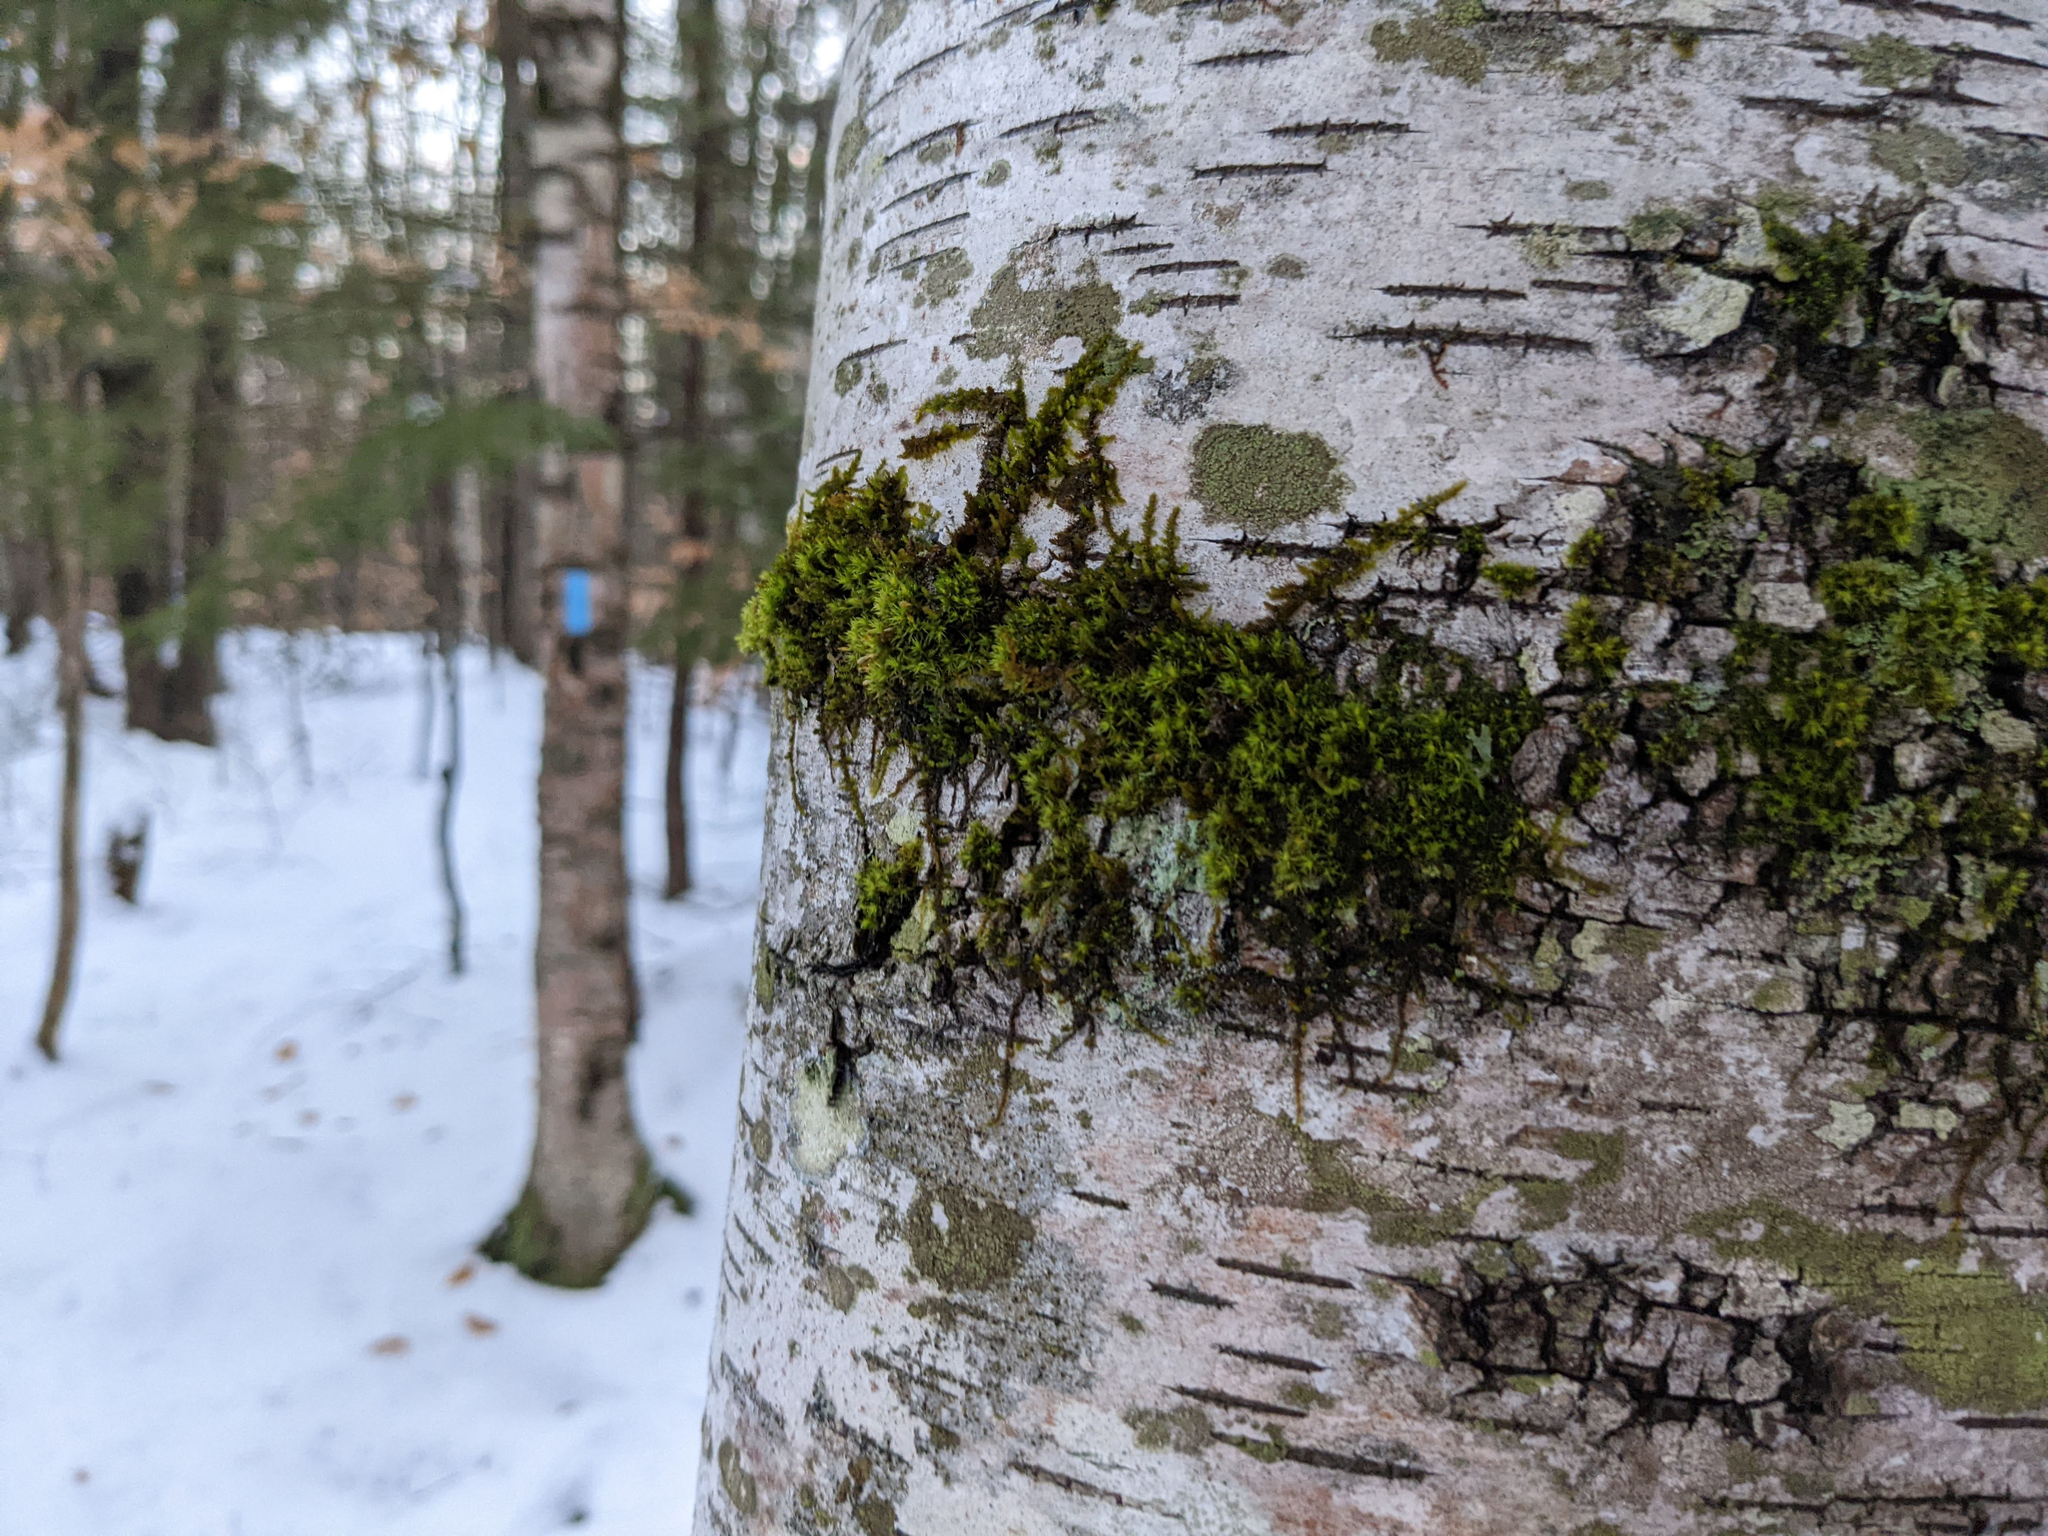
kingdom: Plantae
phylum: Bryophyta
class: Bryopsida
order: Orthotrichales
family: Orthotrichaceae
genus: Ulota
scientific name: Ulota crispa
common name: Crisped pincushion moss
